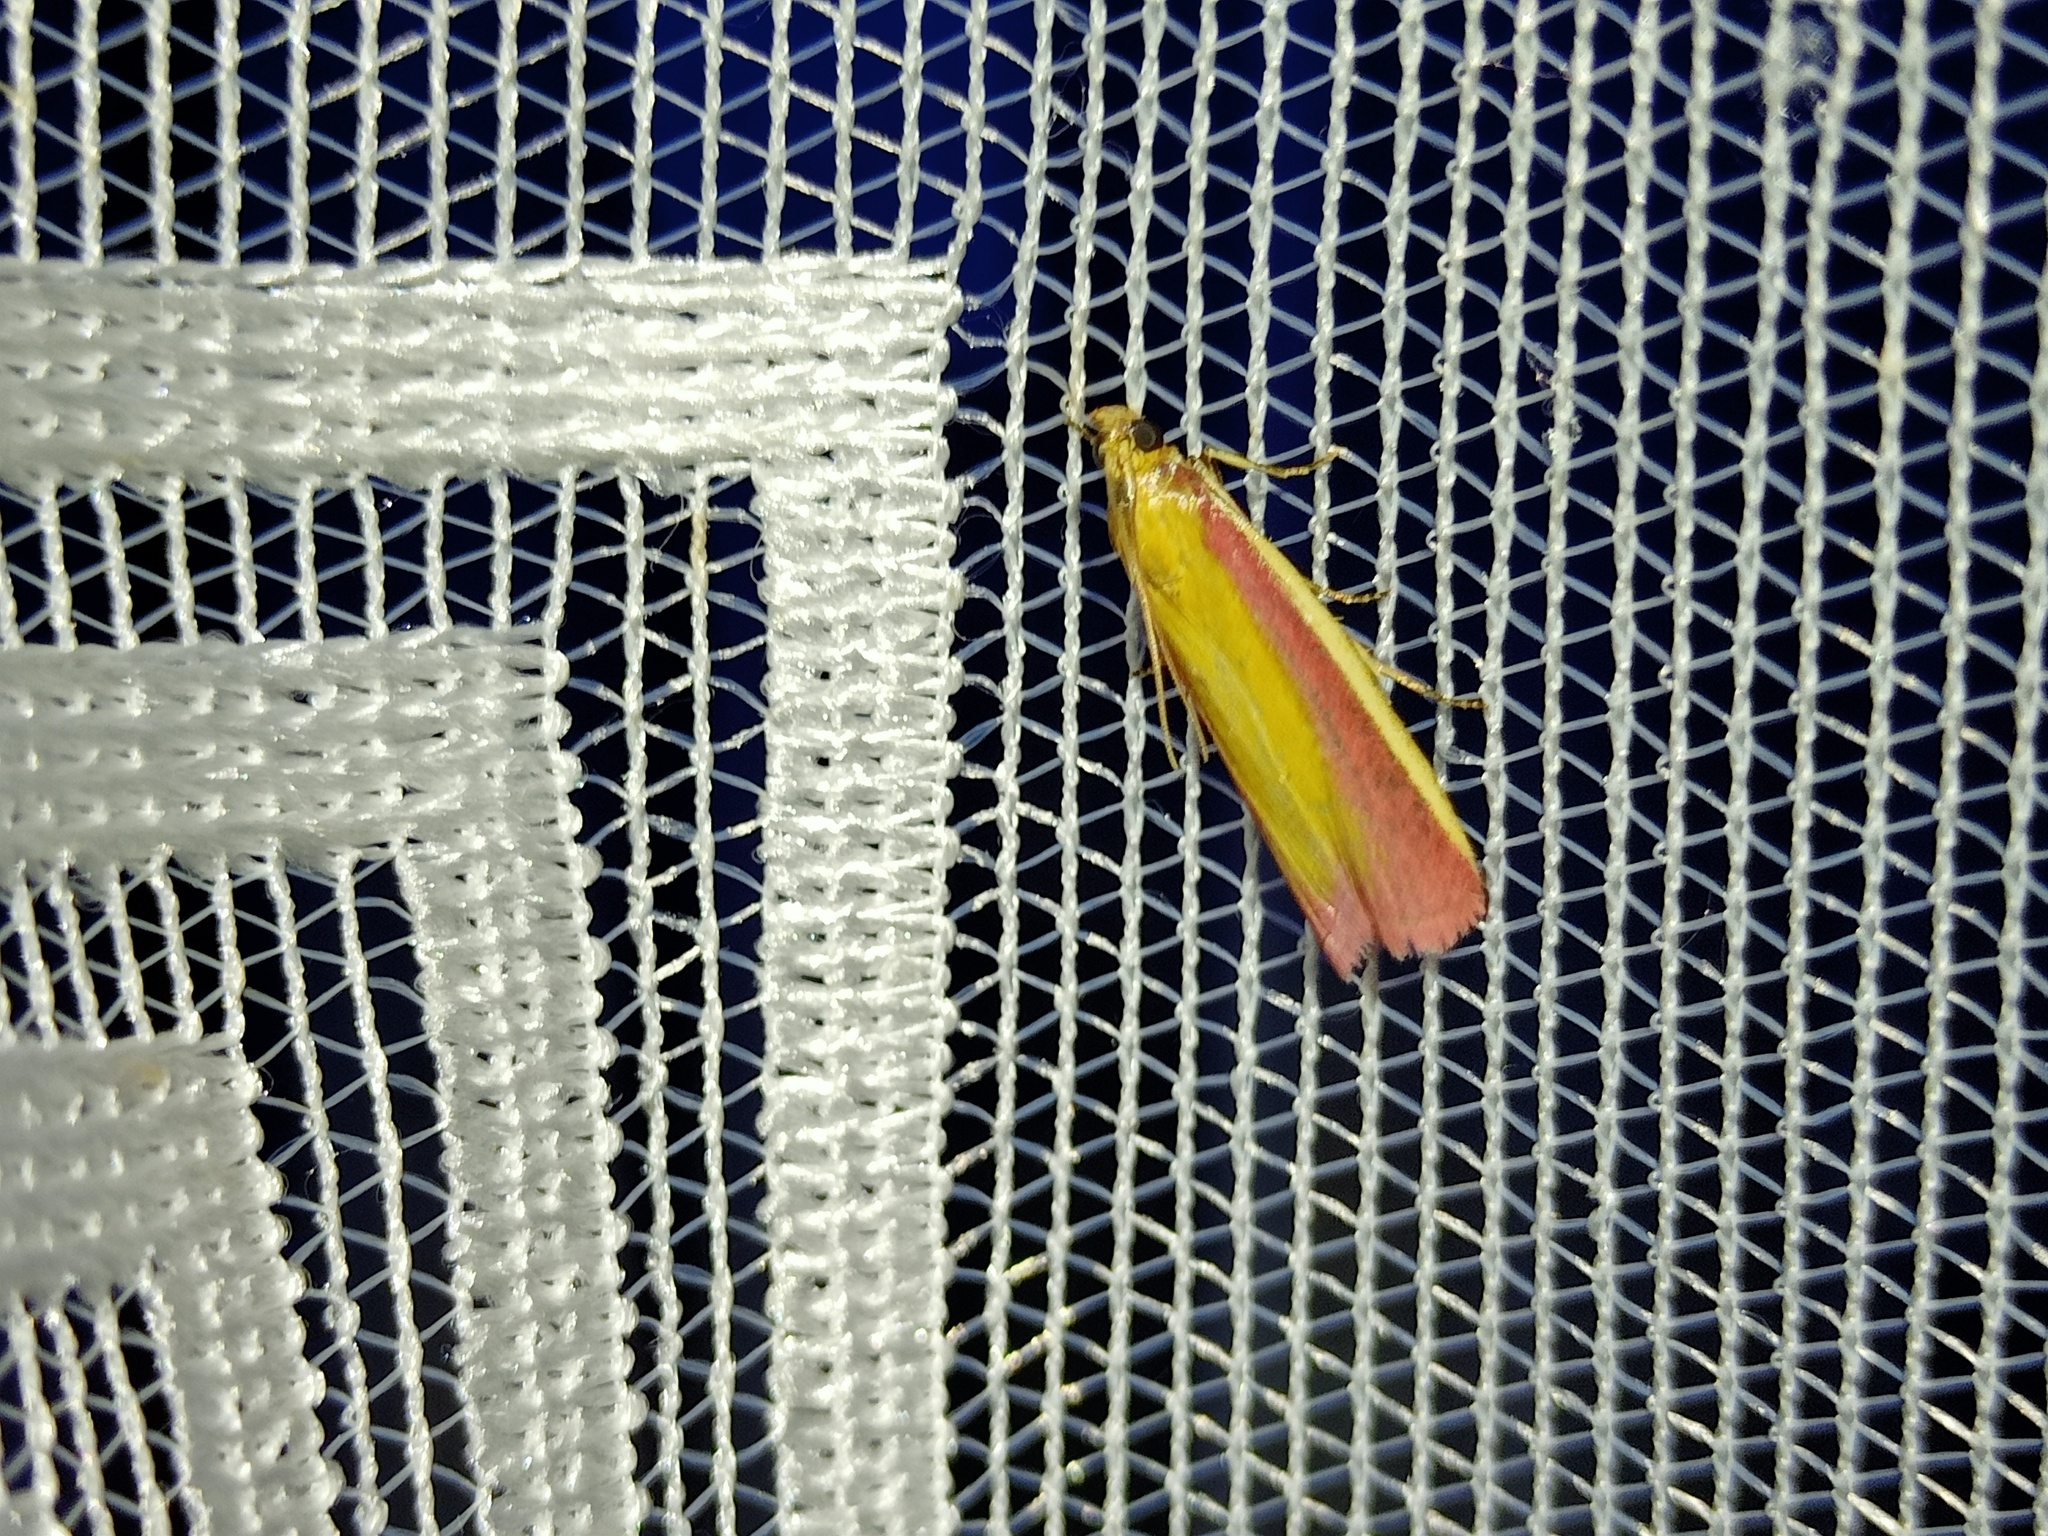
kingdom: Animalia
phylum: Arthropoda
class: Insecta
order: Lepidoptera
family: Pyralidae
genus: Oncocera
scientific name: Oncocera semirubella
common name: Rosy-striped knot-horn
